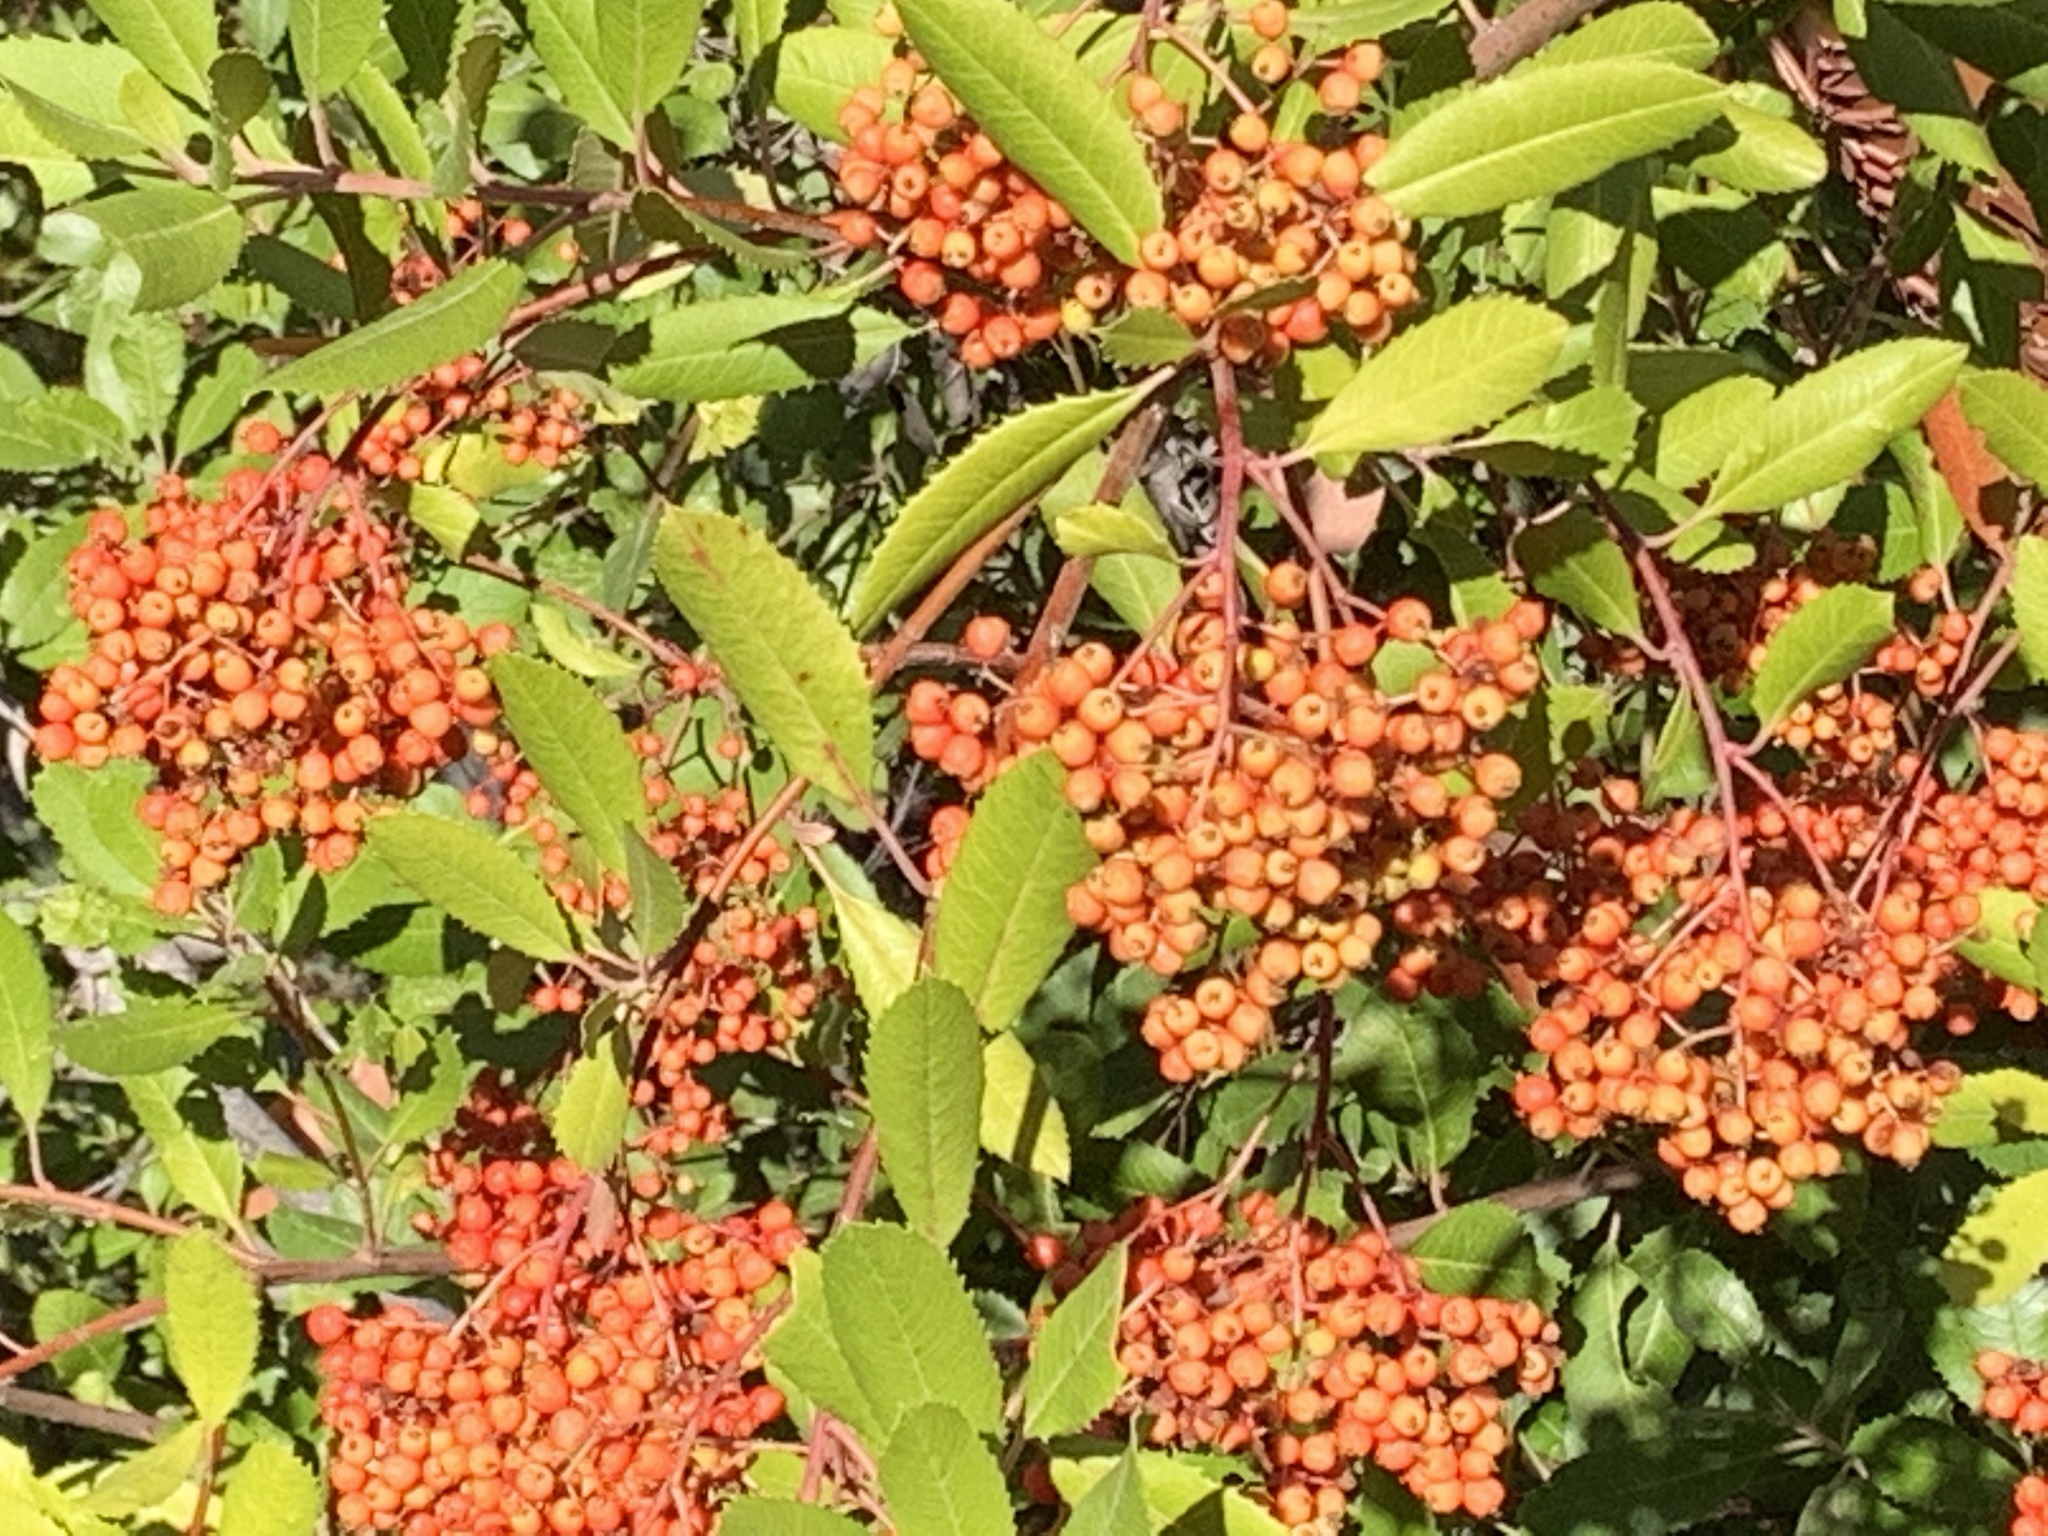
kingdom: Plantae
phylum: Tracheophyta
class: Magnoliopsida
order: Rosales
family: Rosaceae
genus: Heteromeles
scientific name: Heteromeles arbutifolia
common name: California-holly
